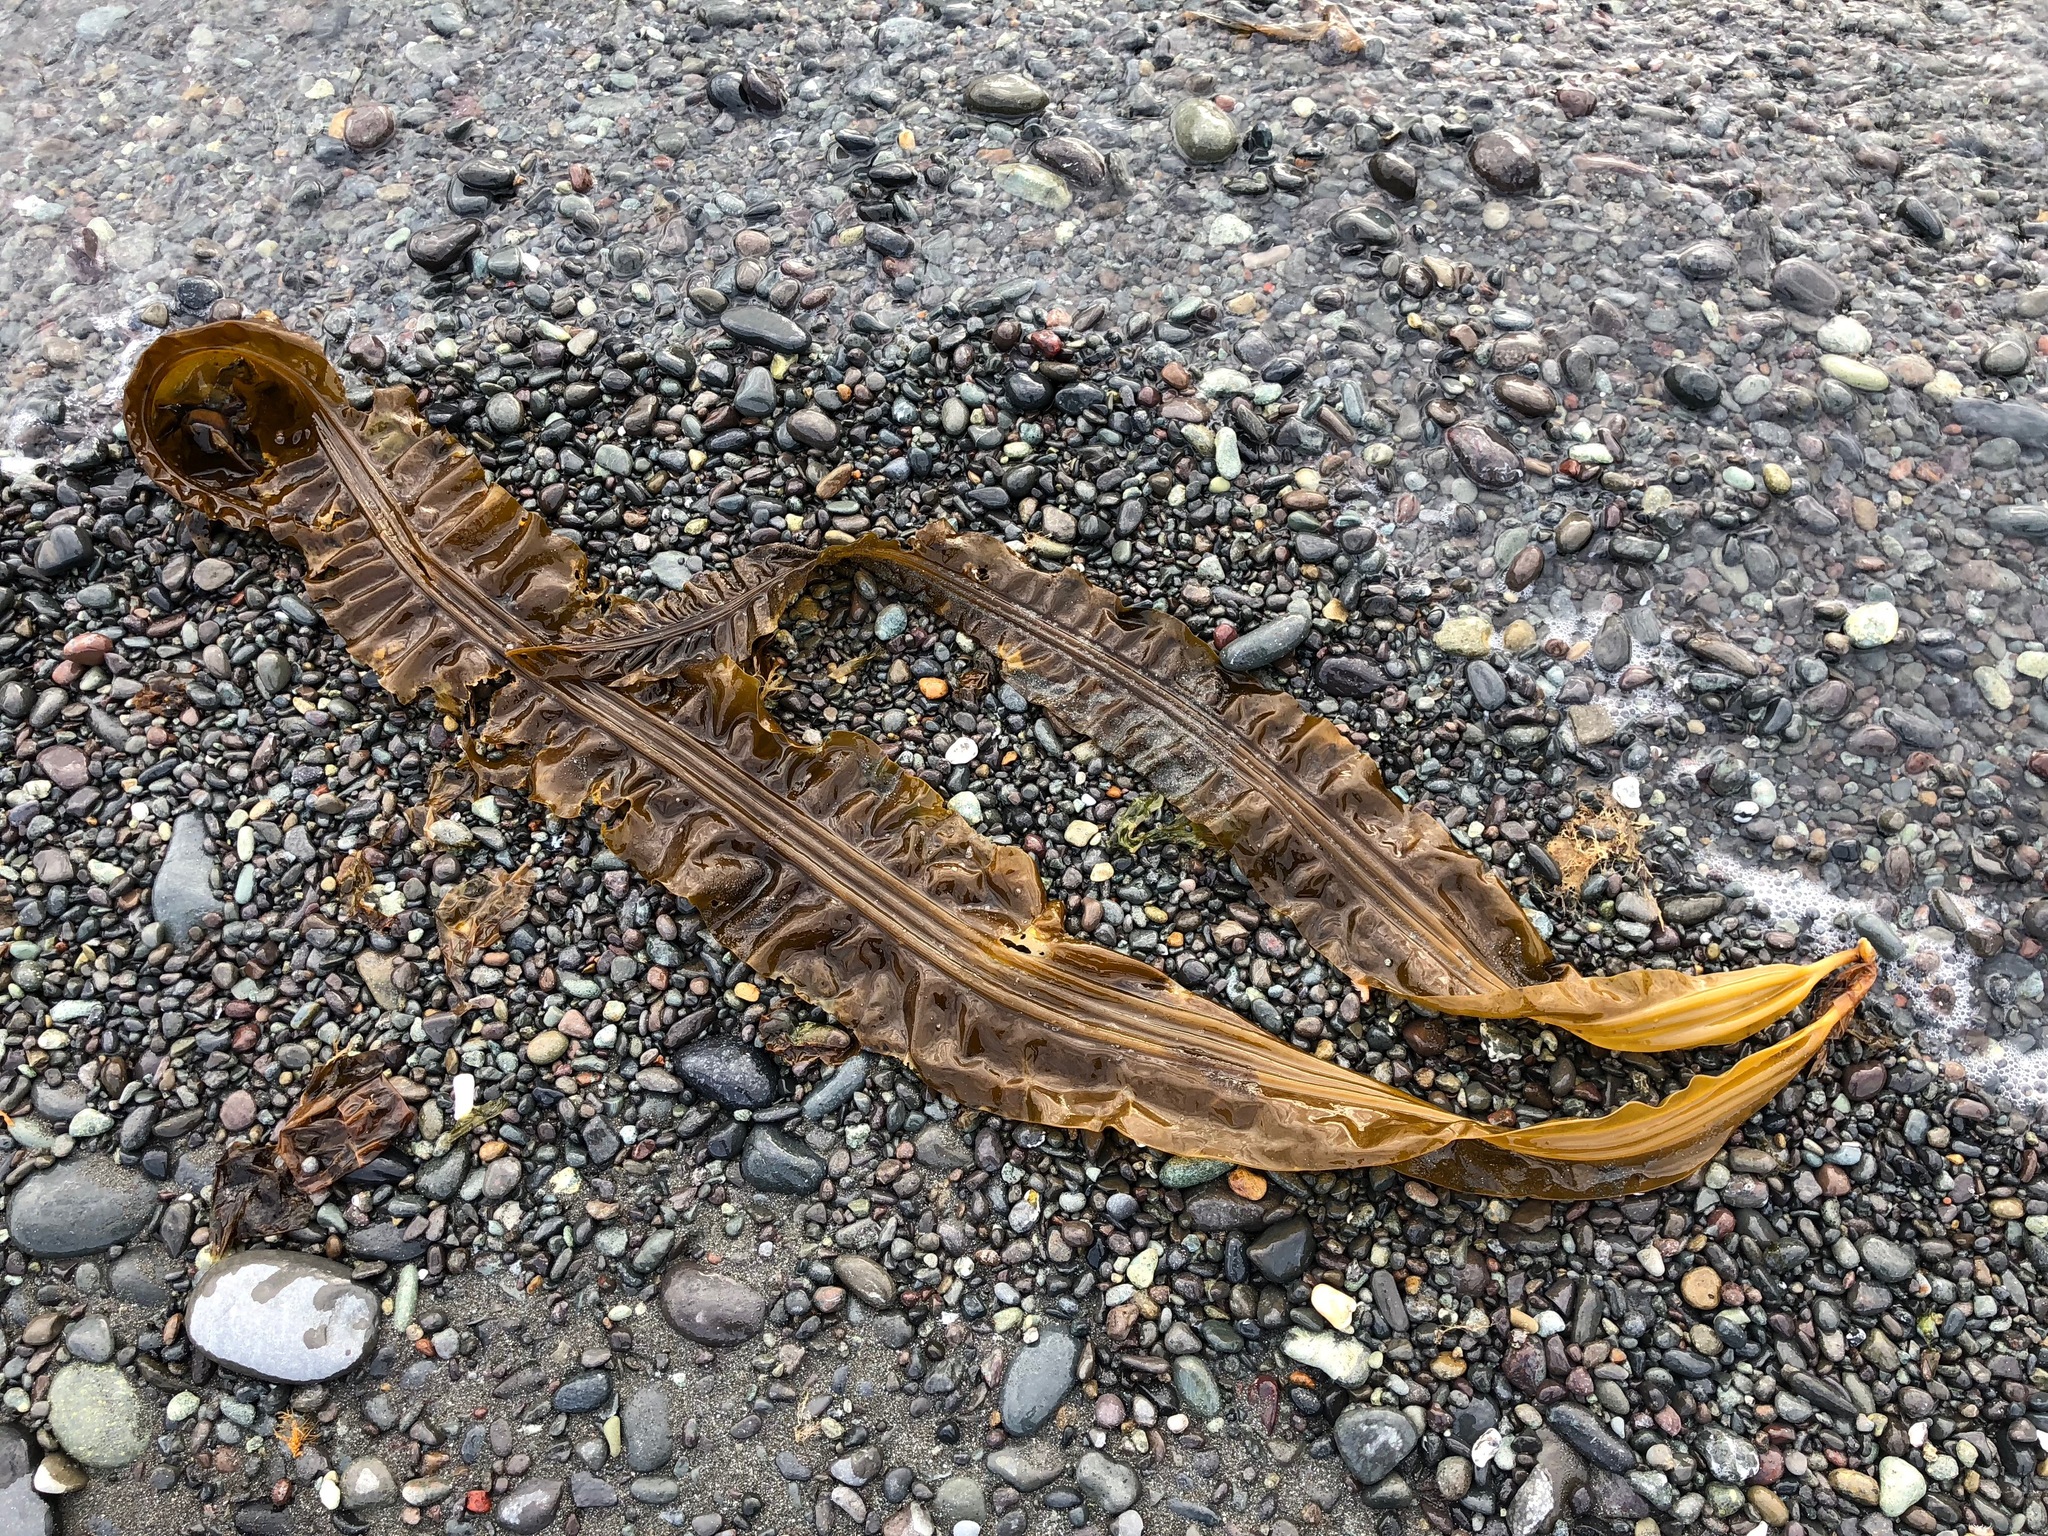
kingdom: Chromista
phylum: Ochrophyta
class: Phaeophyceae
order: Laminariales
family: Laminariaceae
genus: Cymathaere
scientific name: Cymathaere triplicata
